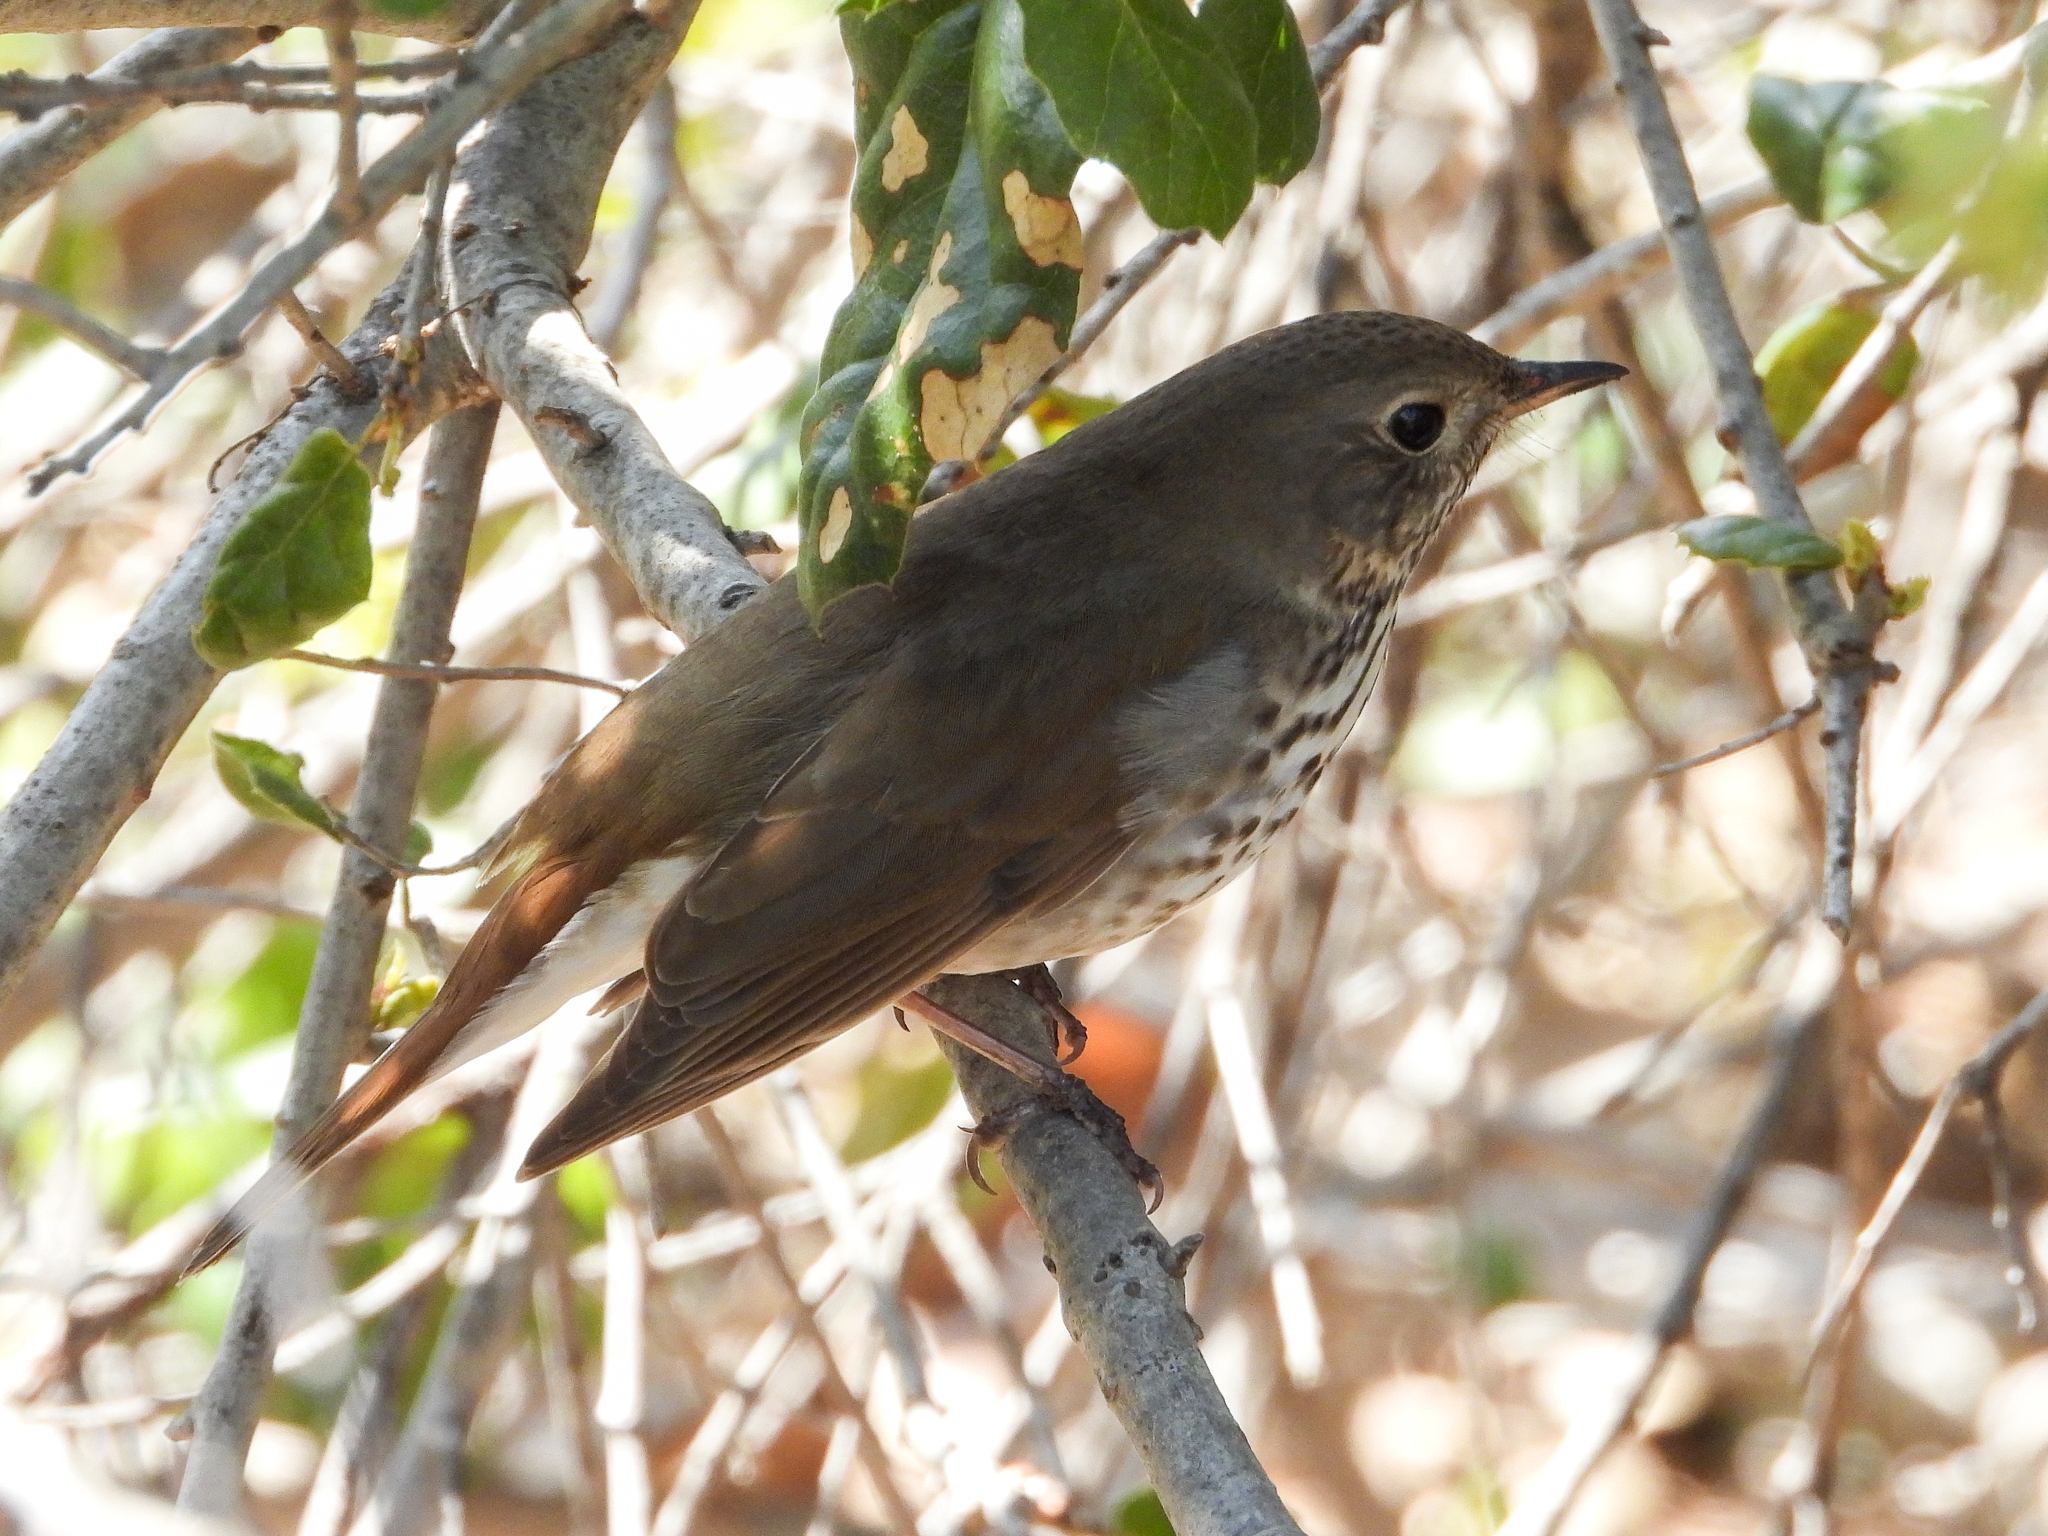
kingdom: Animalia
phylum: Chordata
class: Aves
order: Passeriformes
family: Turdidae
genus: Catharus
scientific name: Catharus guttatus
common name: Hermit thrush
